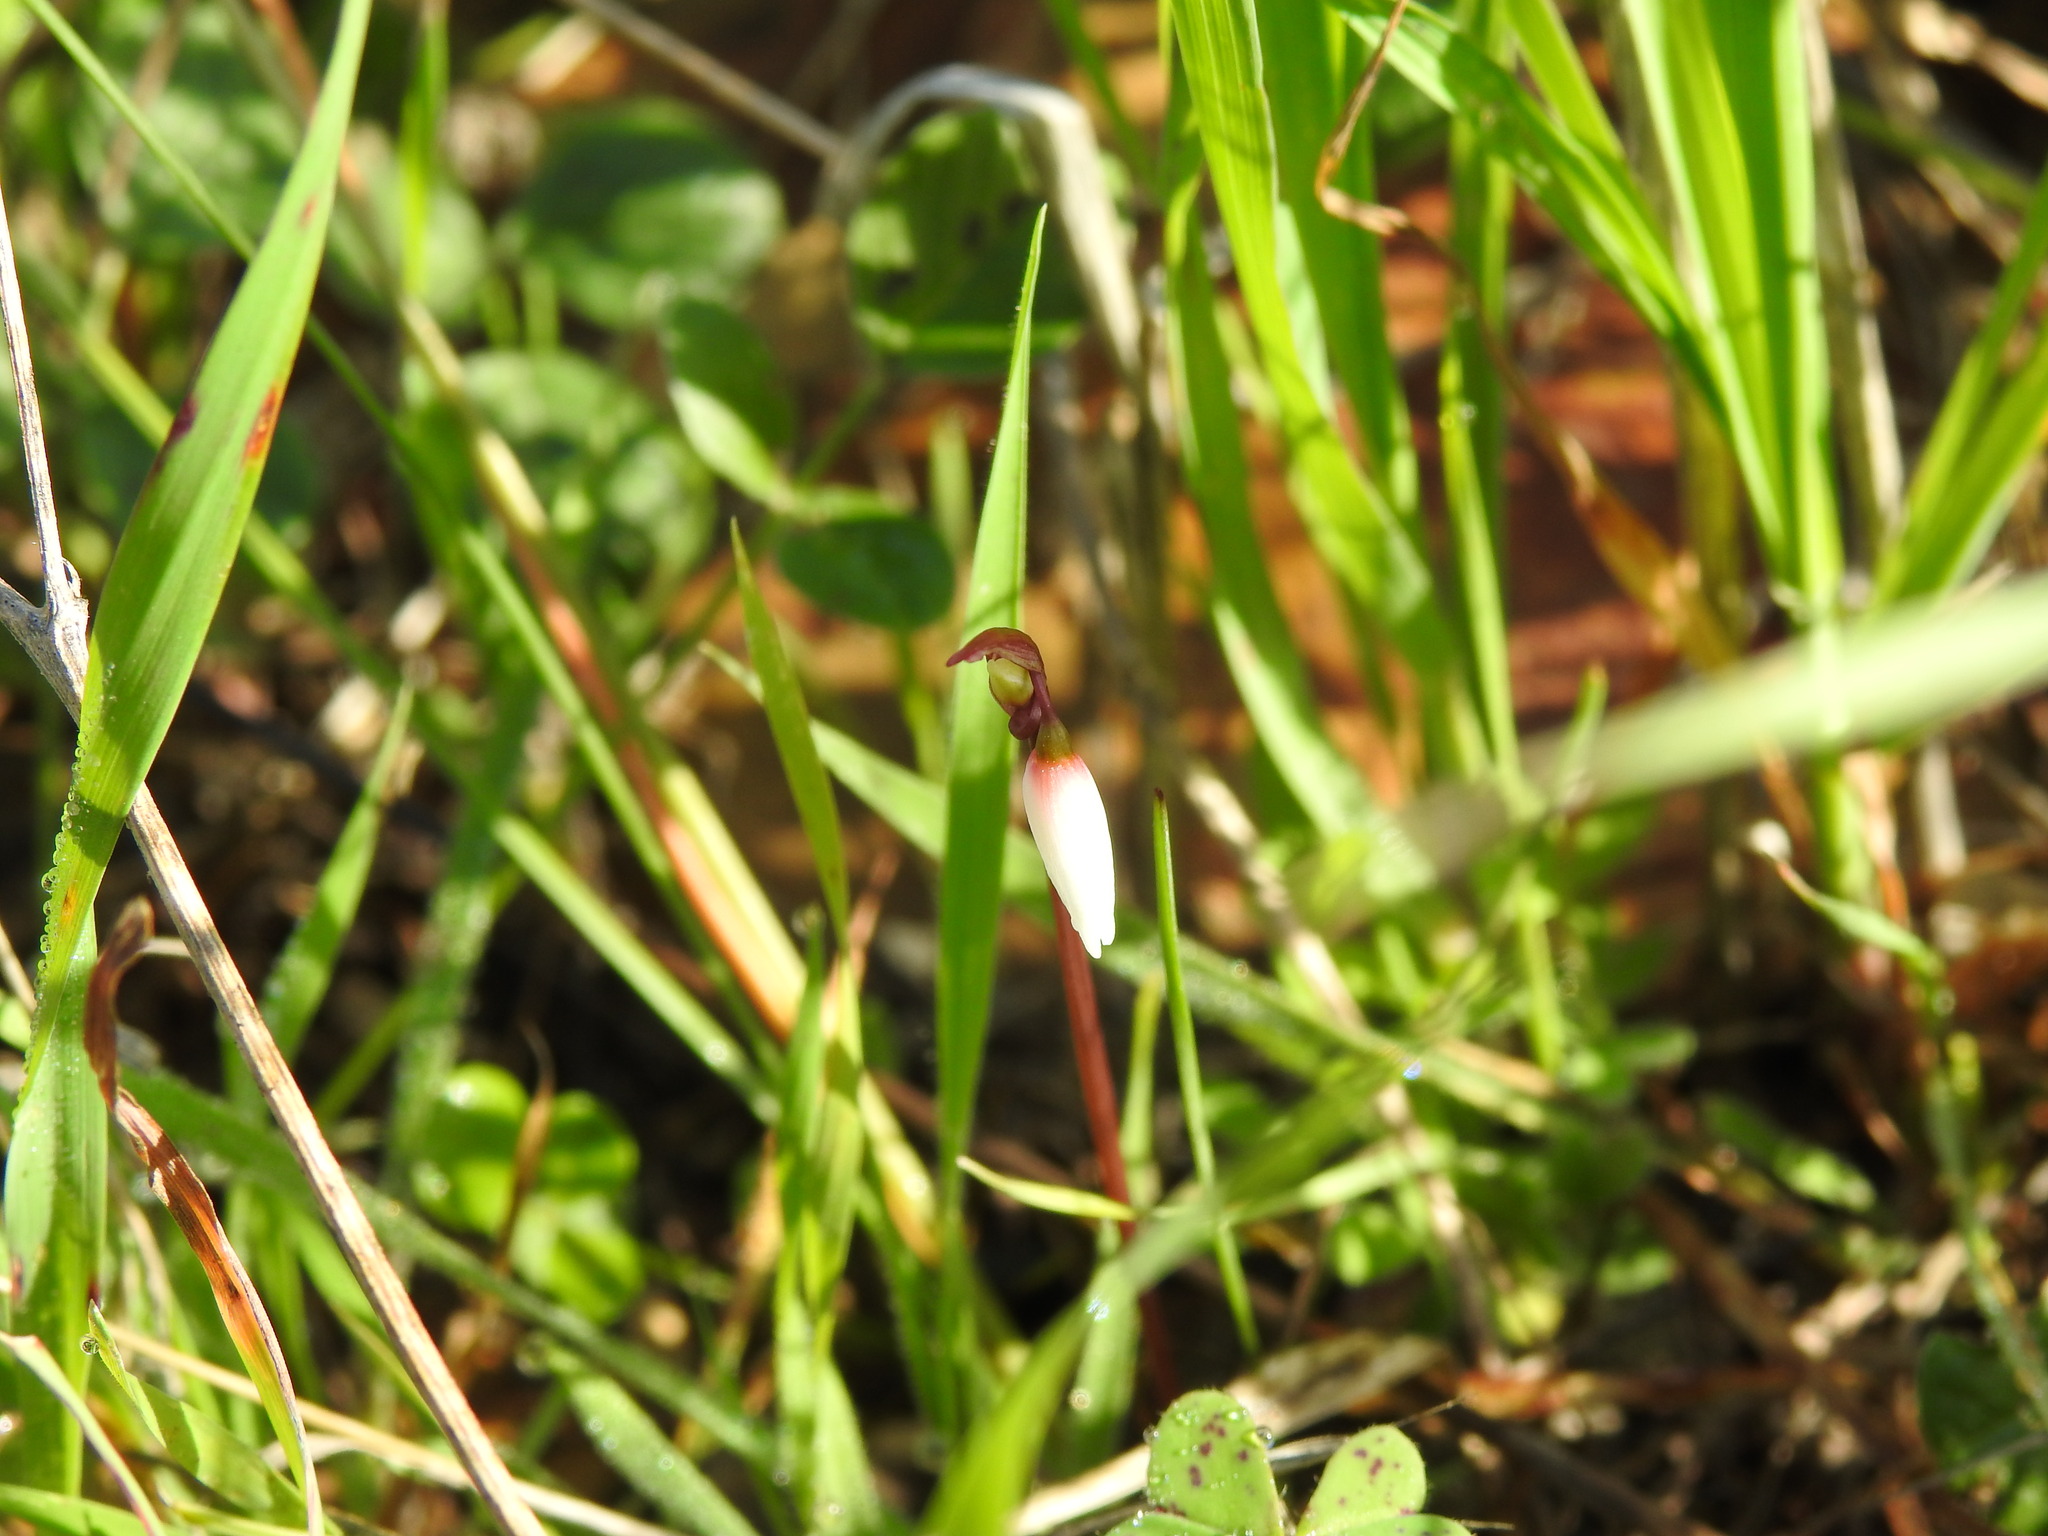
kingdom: Plantae
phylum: Tracheophyta
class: Liliopsida
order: Asparagales
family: Amaryllidaceae
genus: Acis
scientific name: Acis autumnalis
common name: Autumn snowflake
